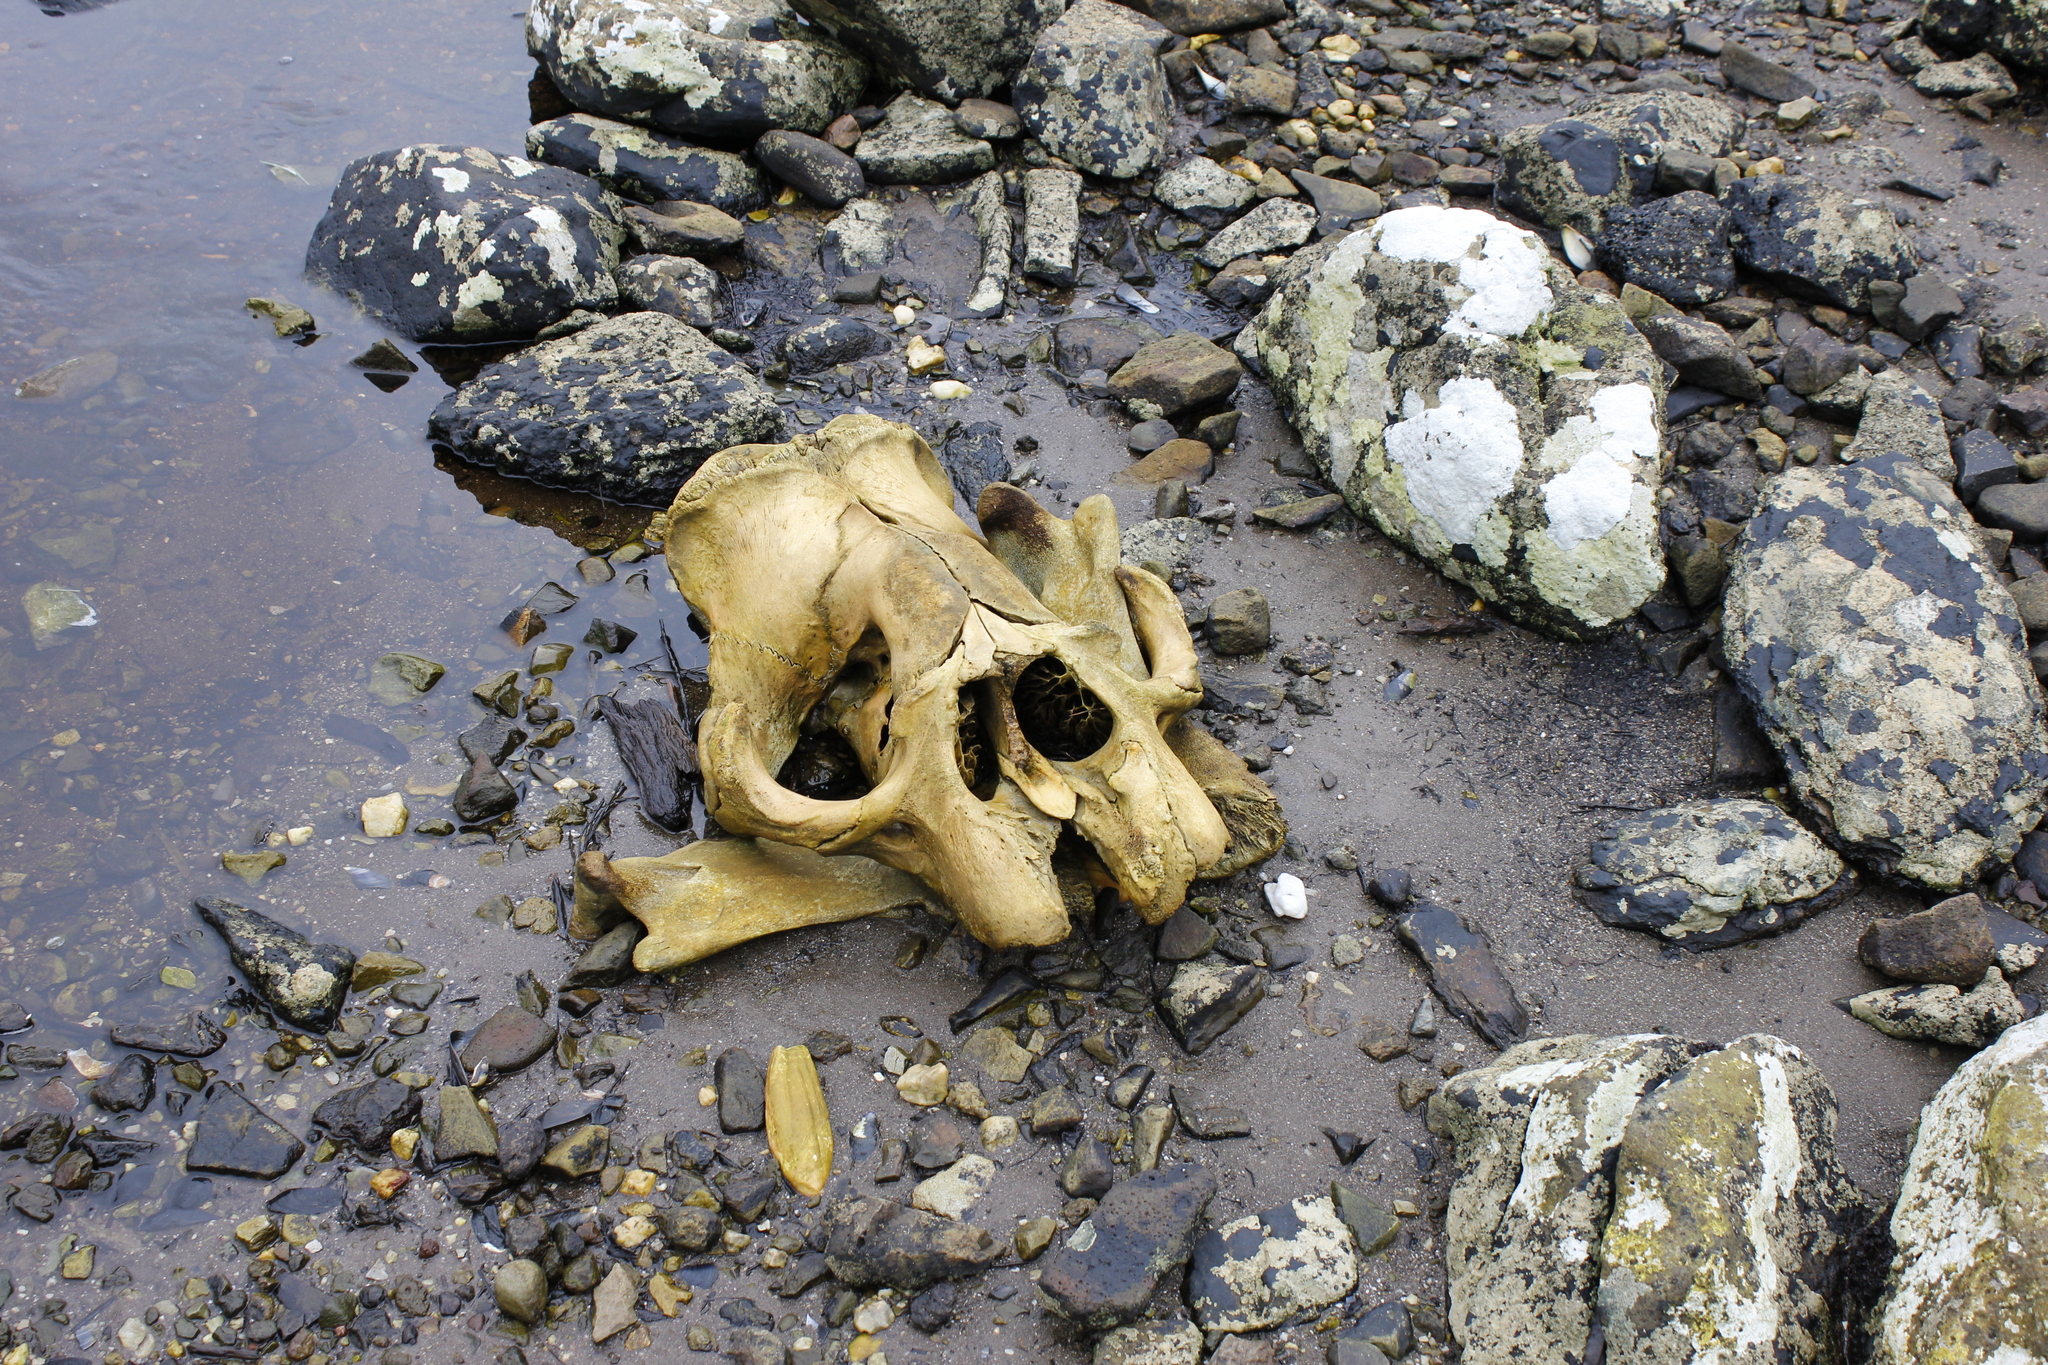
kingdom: Animalia
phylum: Chordata
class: Mammalia
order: Carnivora
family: Phocidae
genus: Mirounga
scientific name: Mirounga leonina
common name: Southern elephant seal
